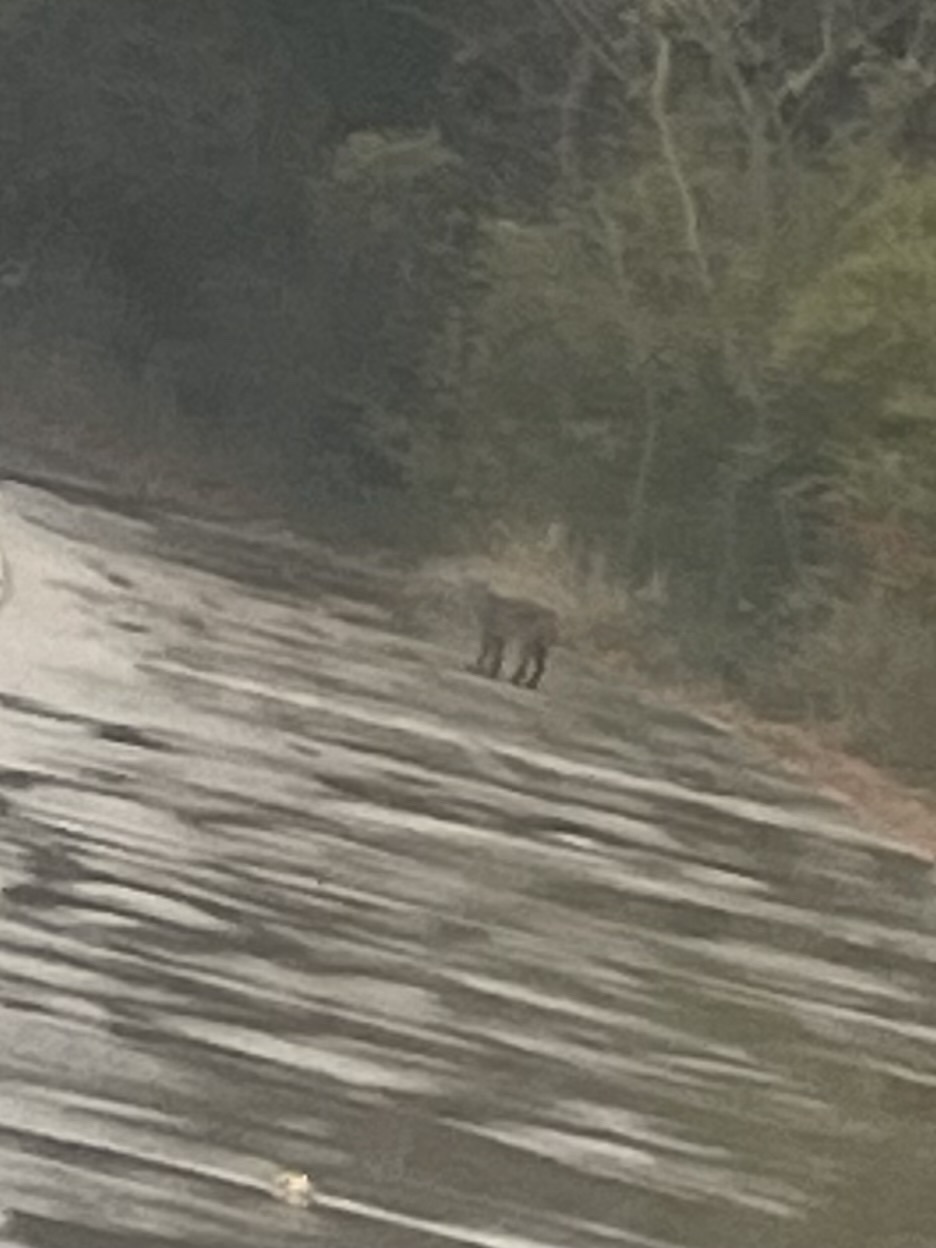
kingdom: Animalia
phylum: Chordata
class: Mammalia
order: Carnivora
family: Felidae
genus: Lynx
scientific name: Lynx rufus
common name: Bobcat
